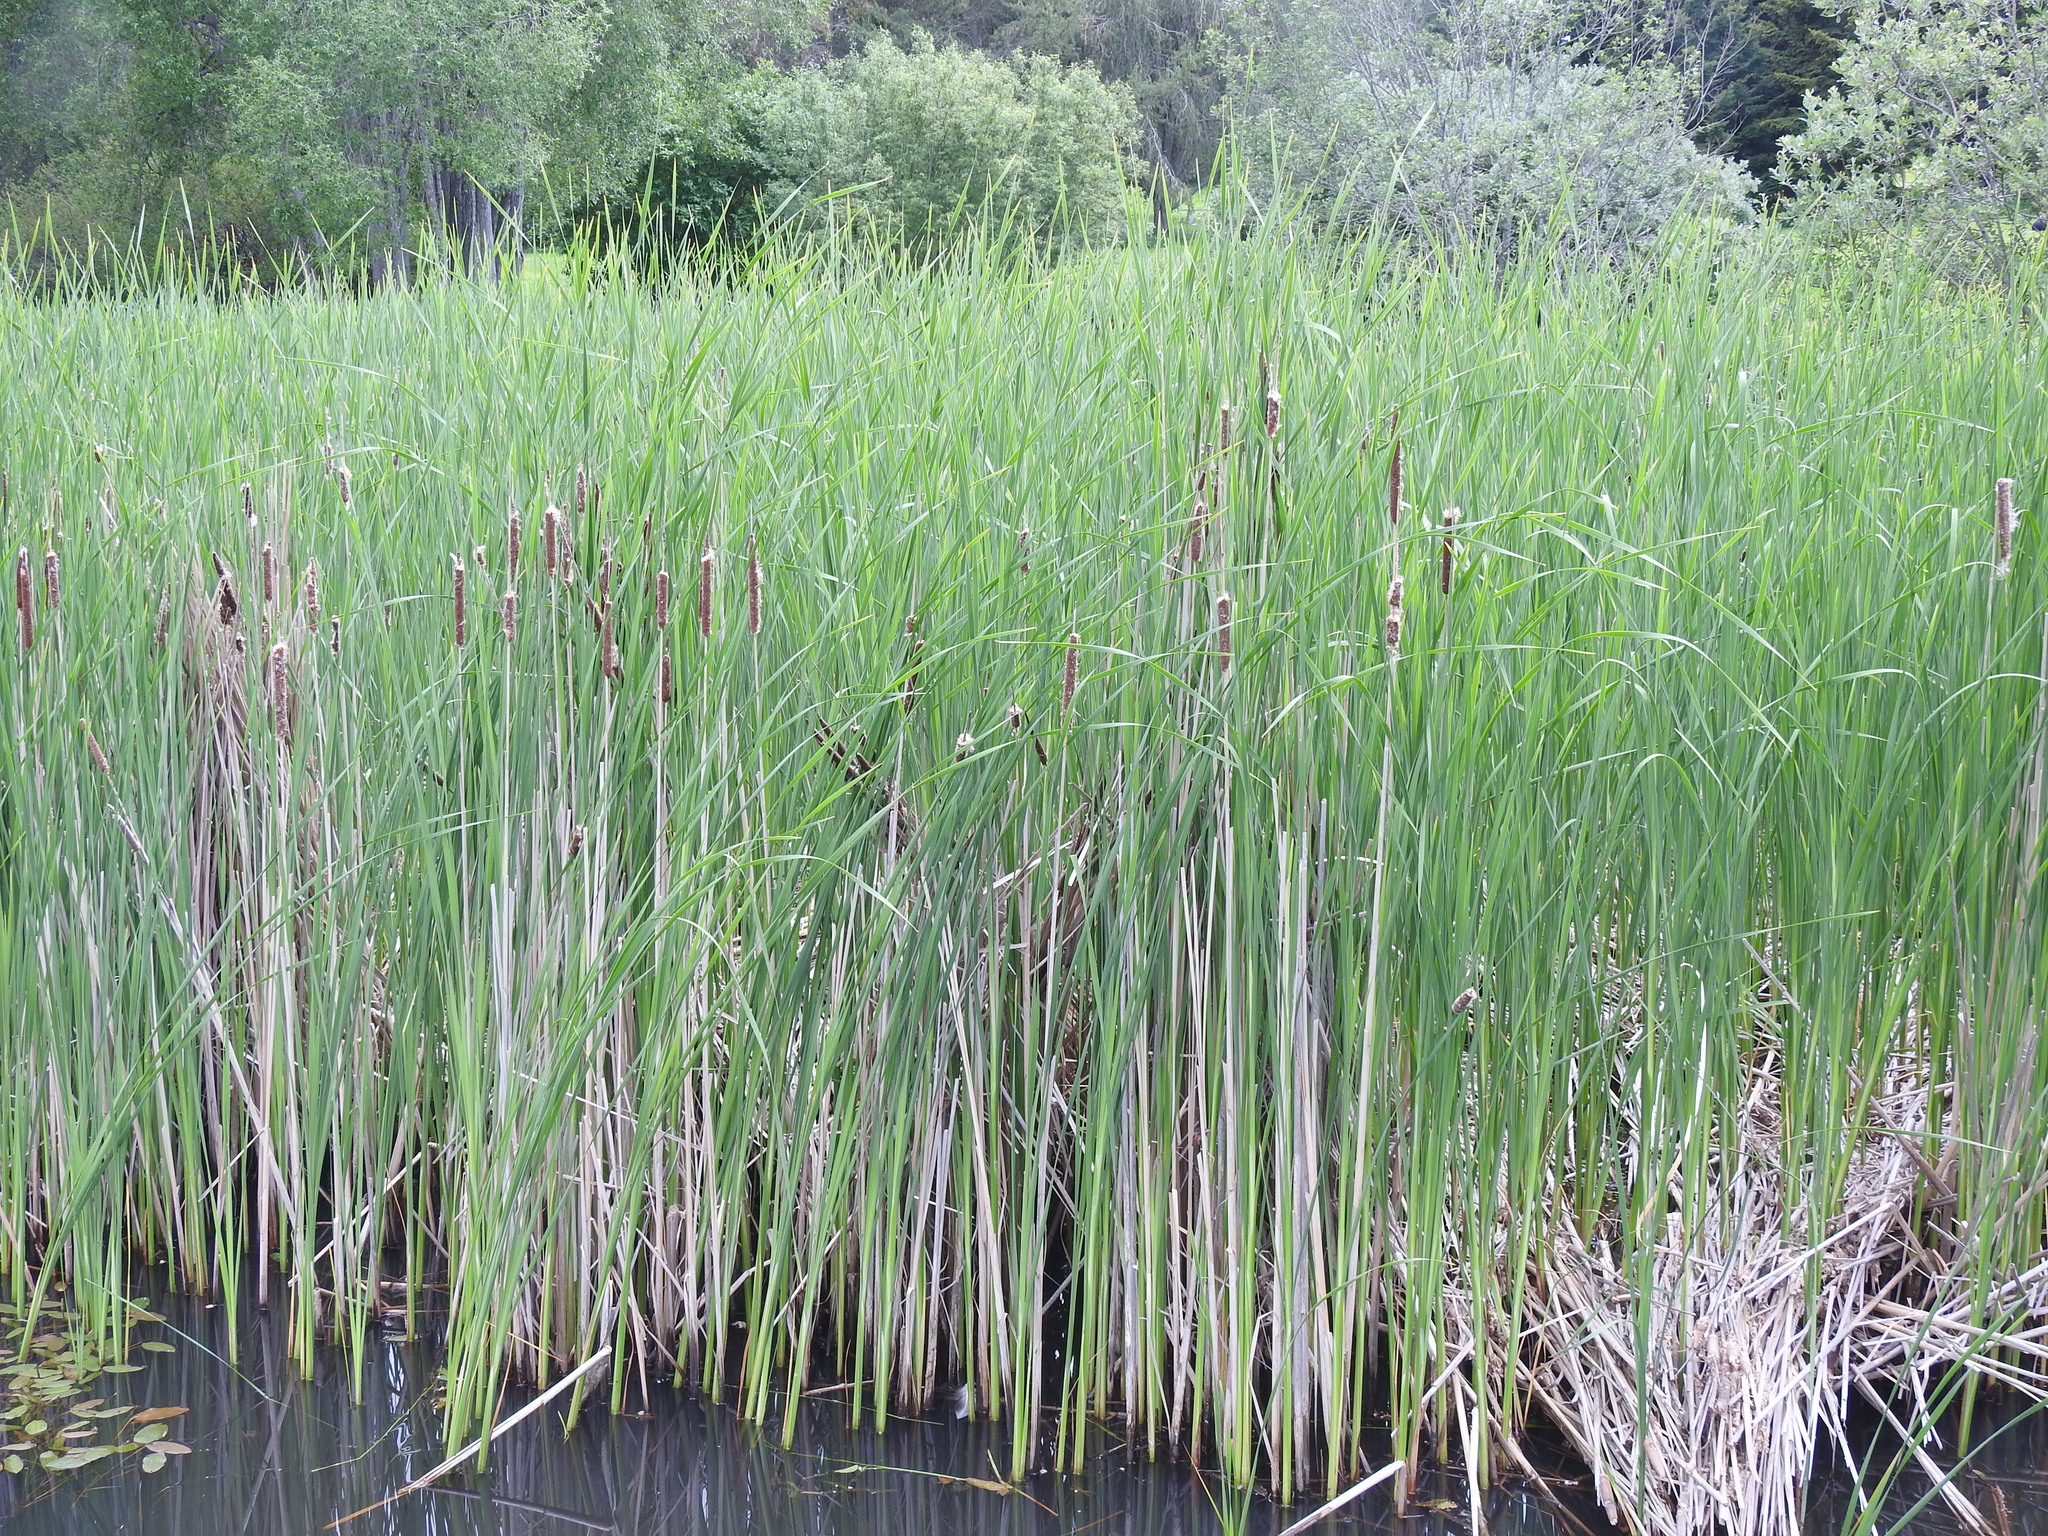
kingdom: Plantae
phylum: Tracheophyta
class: Liliopsida
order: Poales
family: Typhaceae
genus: Typha
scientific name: Typha angustifolia
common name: Lesser bulrush
